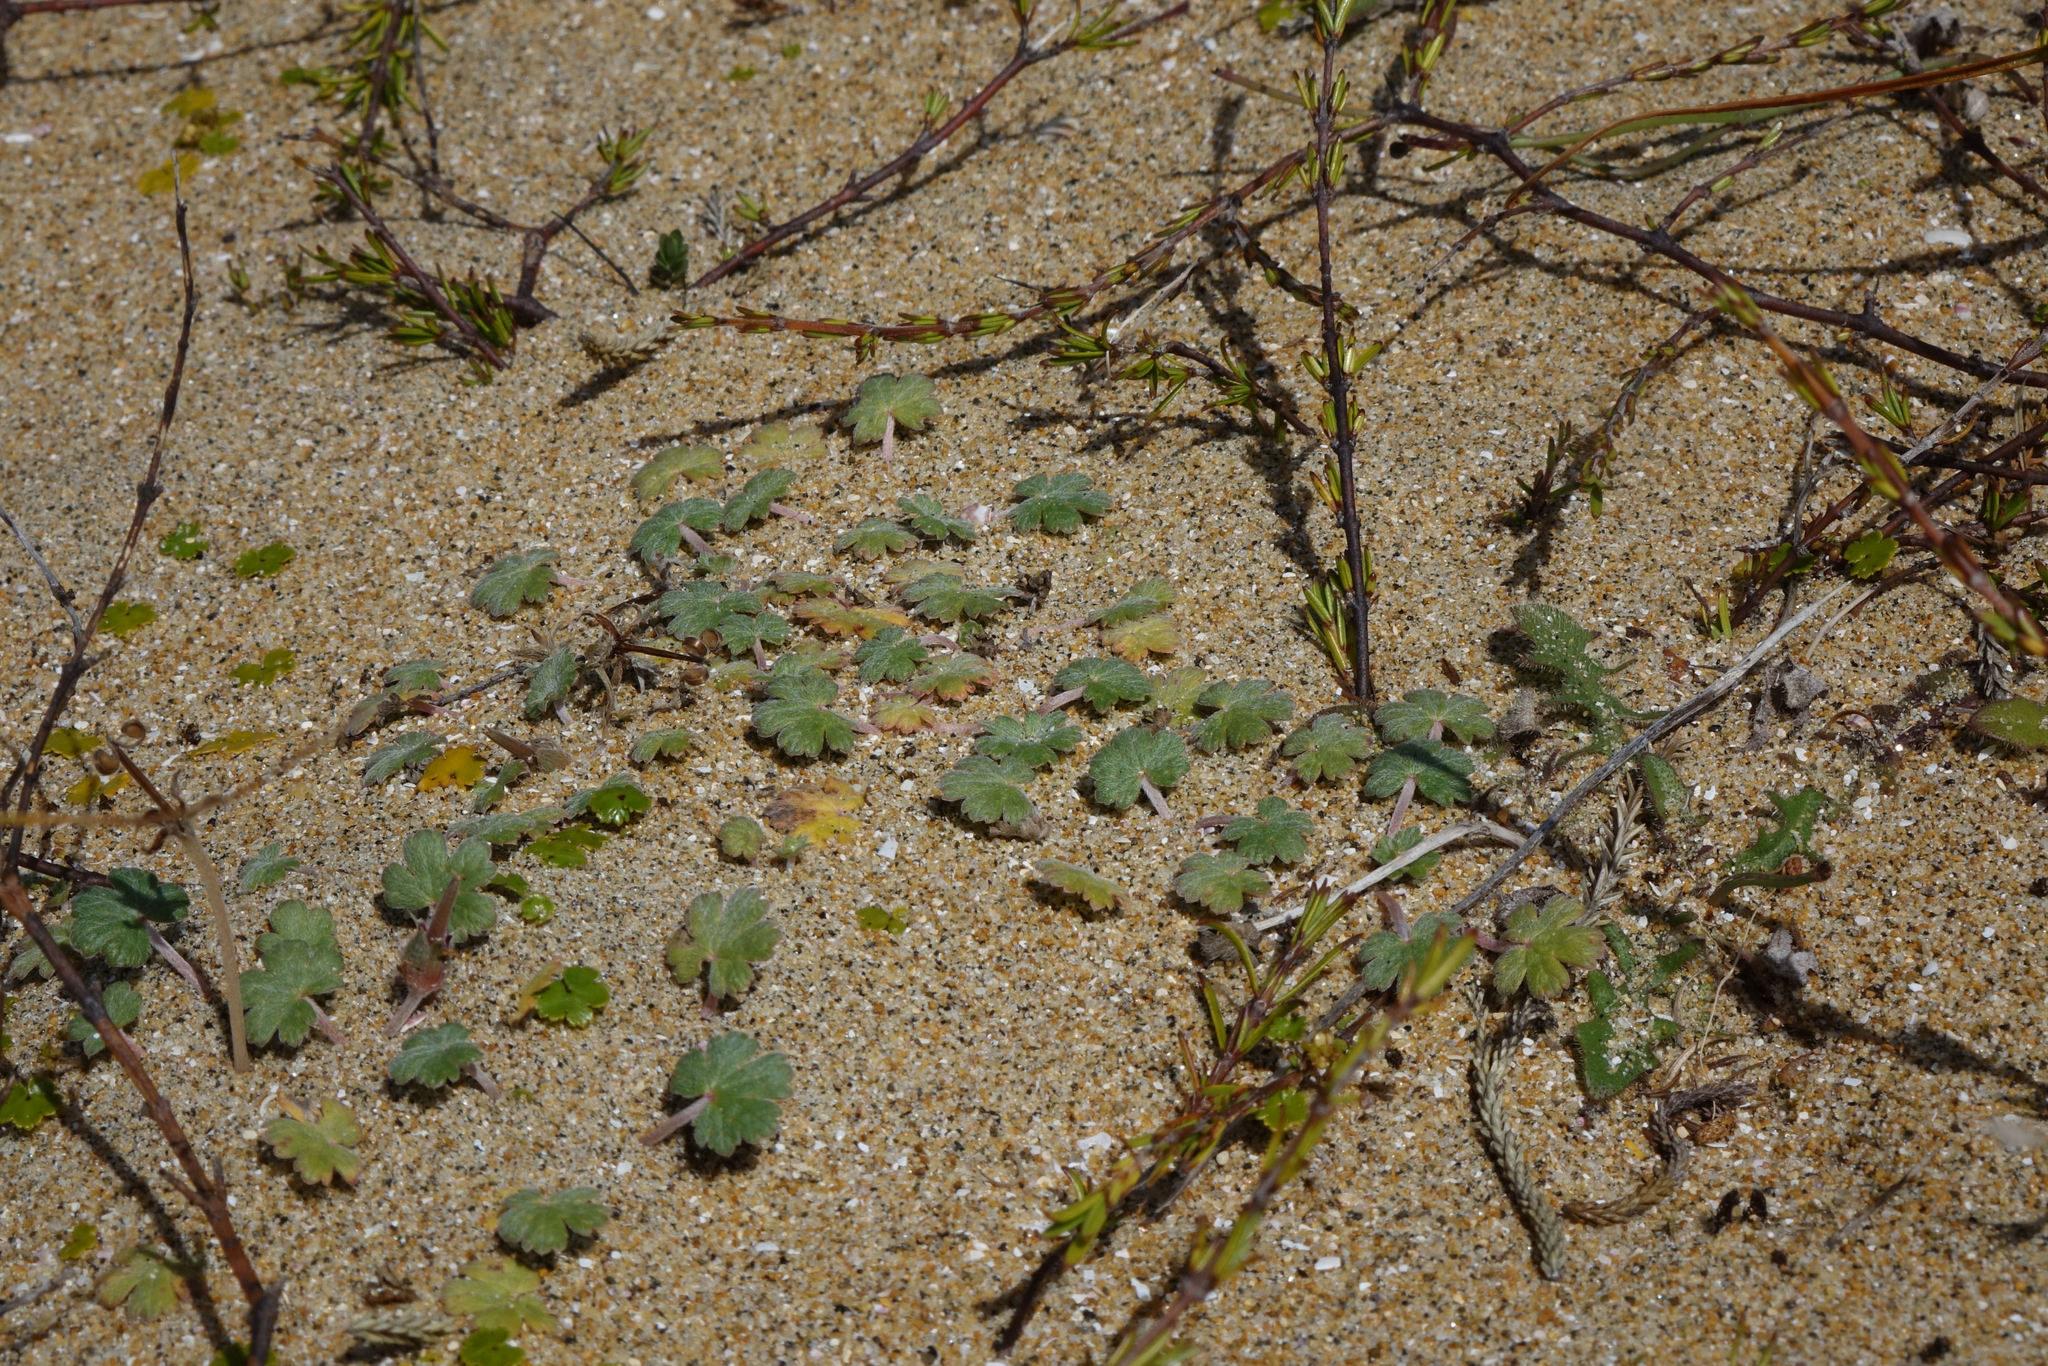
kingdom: Plantae
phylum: Tracheophyta
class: Magnoliopsida
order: Geraniales
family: Geraniaceae
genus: Geranium
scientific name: Geranium brevicaule
